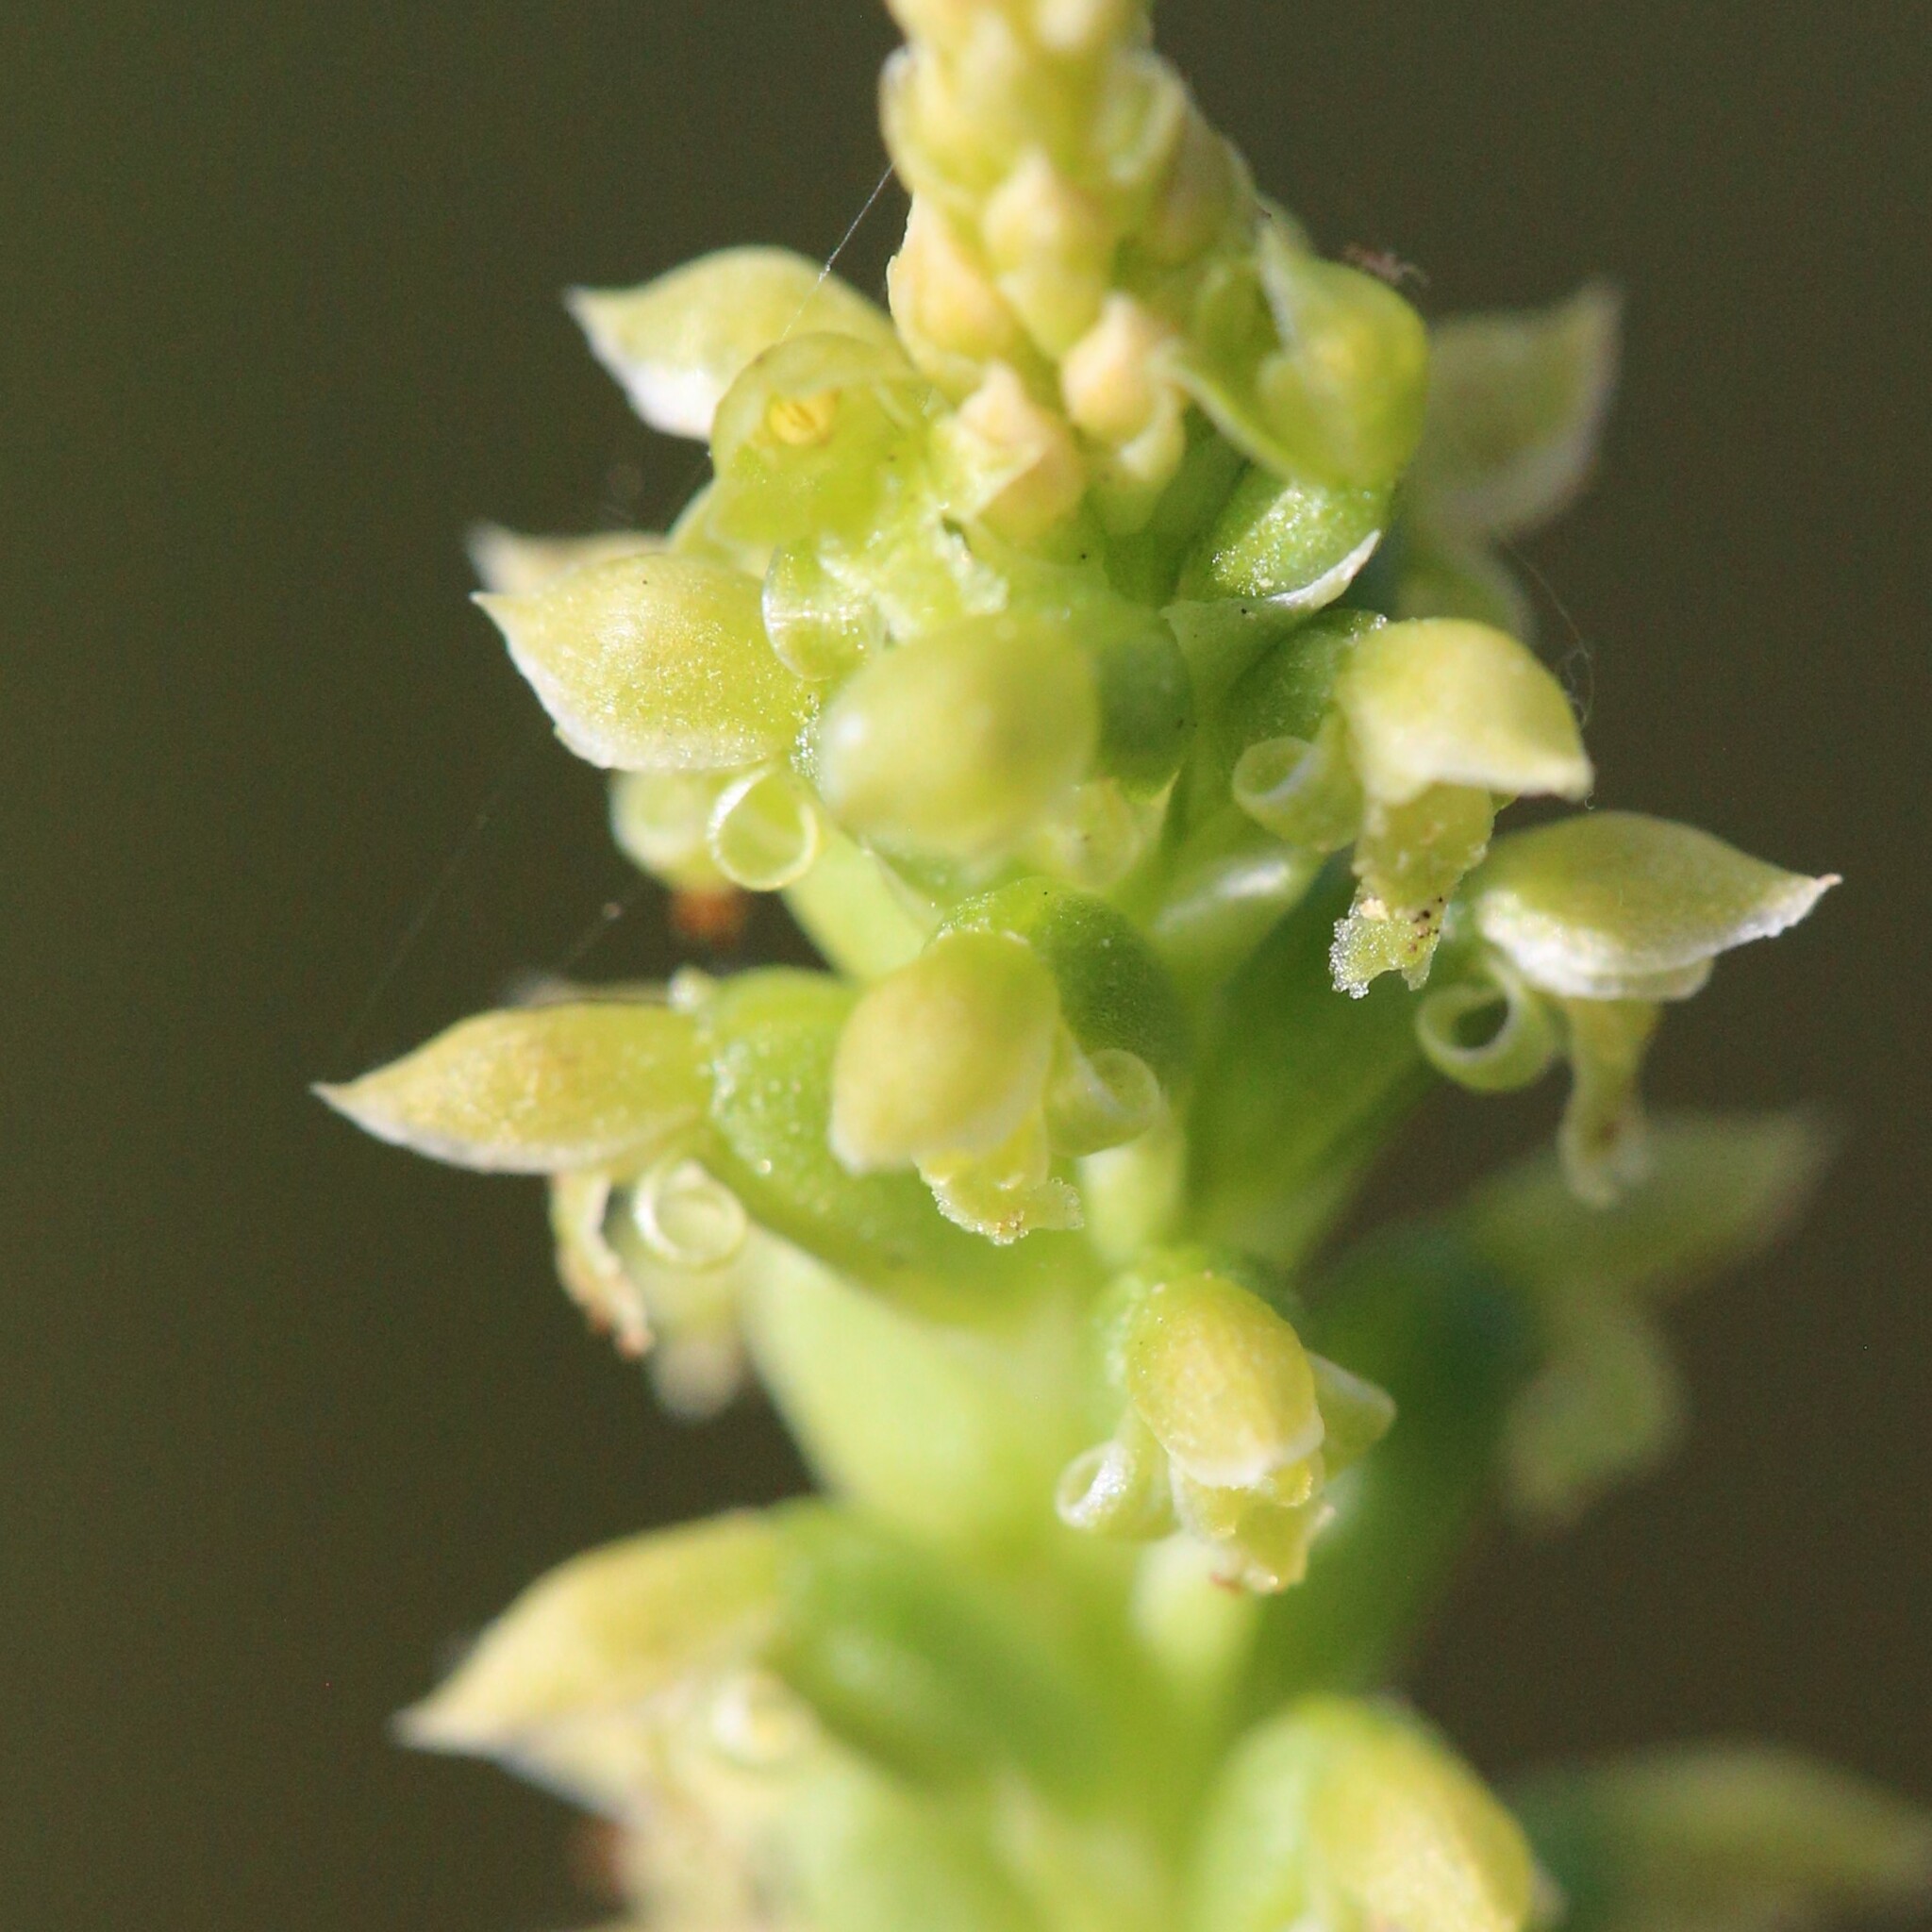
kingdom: Plantae
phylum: Tracheophyta
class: Liliopsida
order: Asparagales
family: Orchidaceae
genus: Microtis
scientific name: Microtis media
